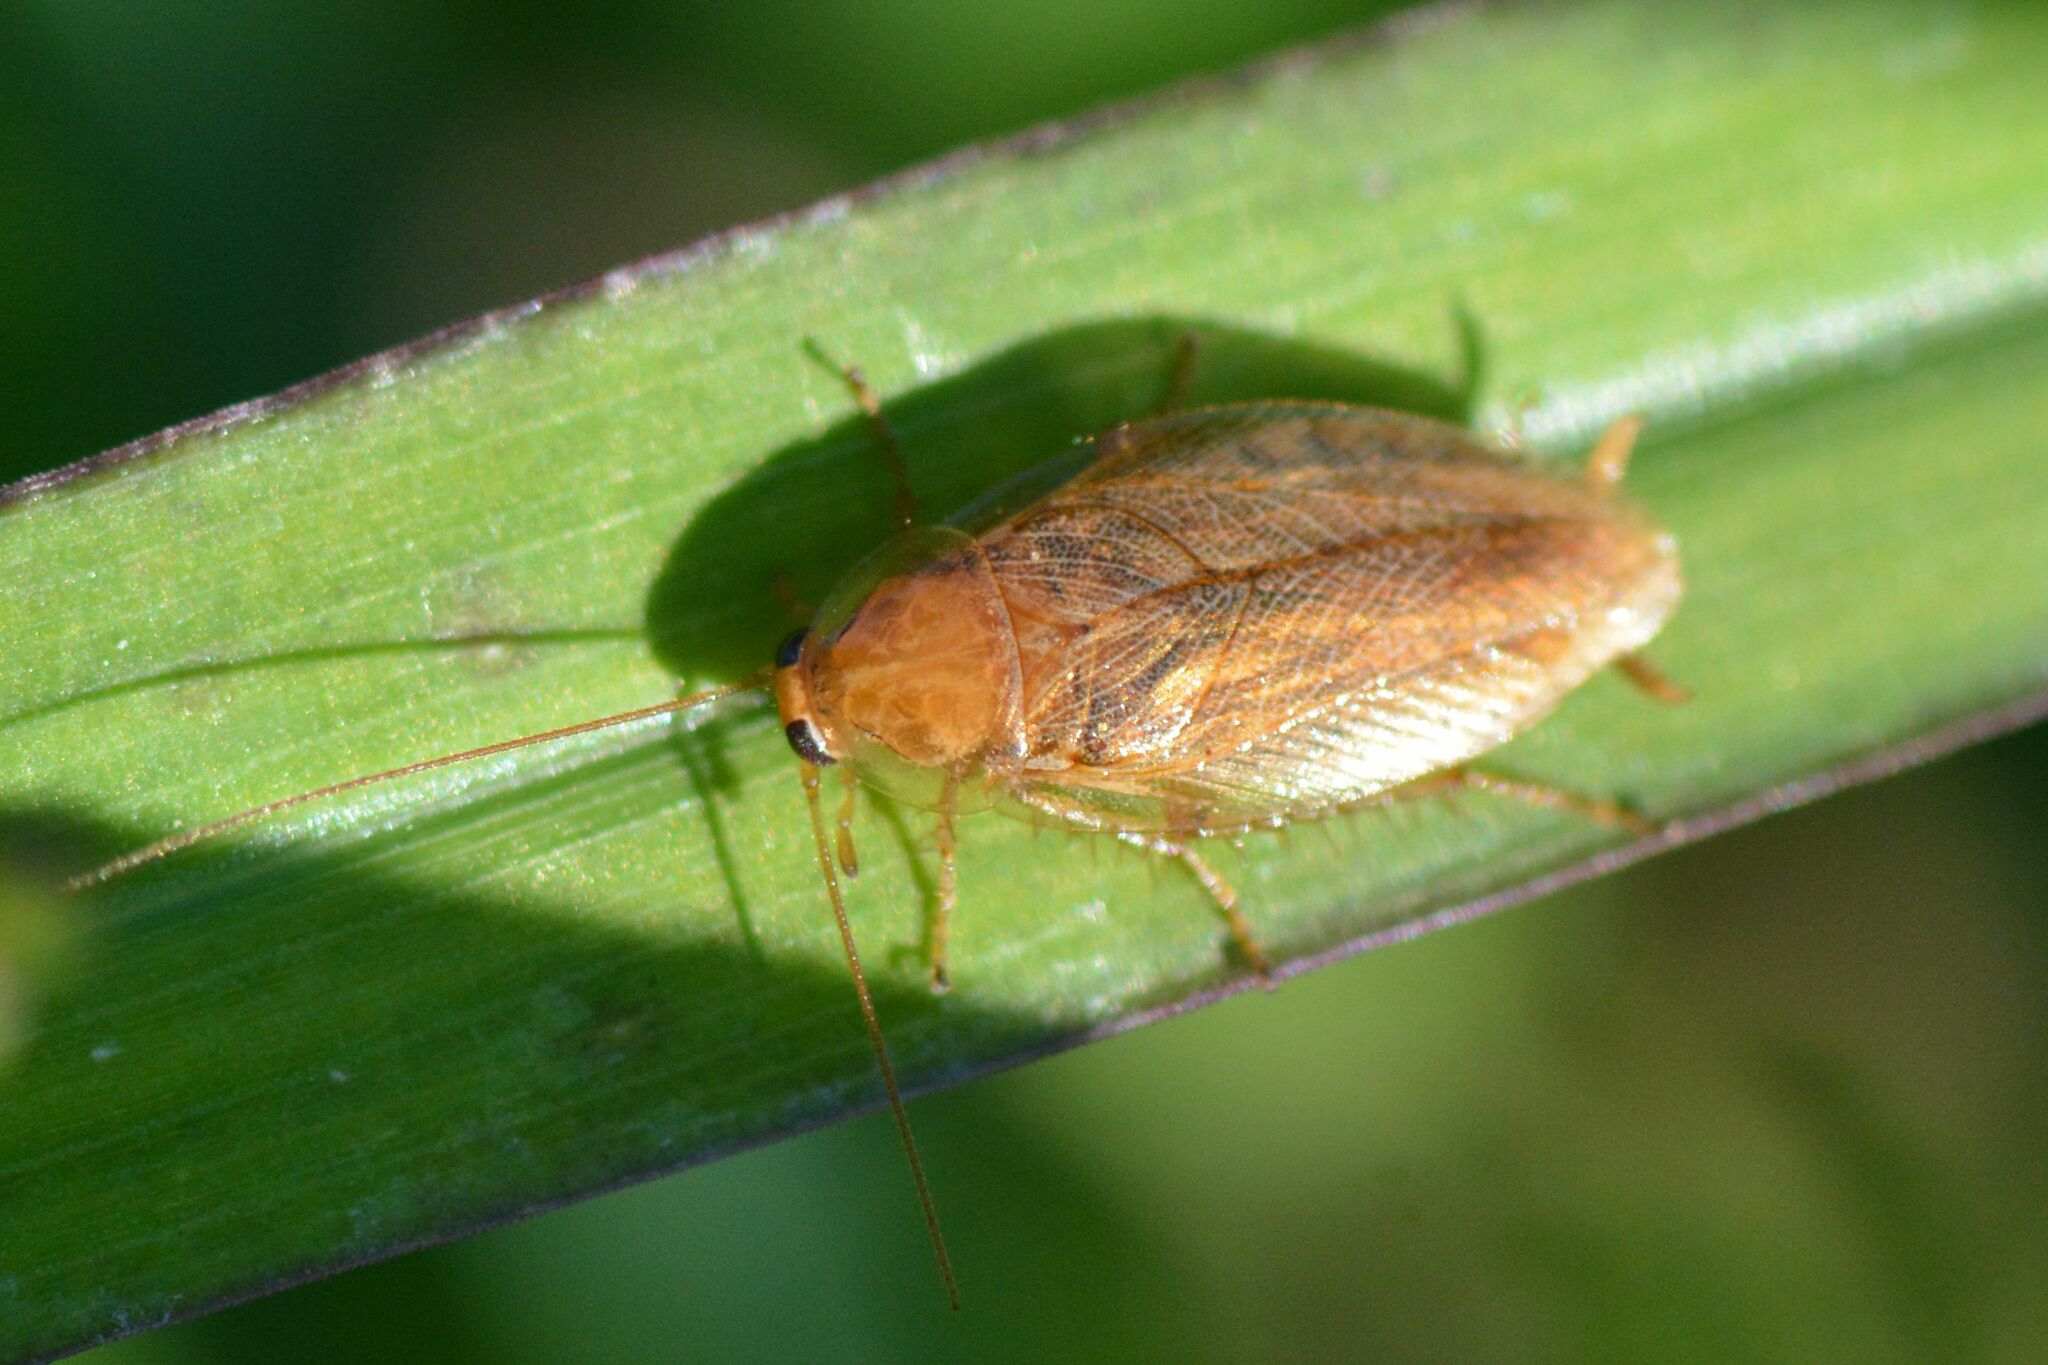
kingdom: Animalia
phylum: Arthropoda
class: Insecta
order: Blattodea
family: Ectobiidae
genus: Ectobius
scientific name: Ectobius vittiventris
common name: Garden cockroach
